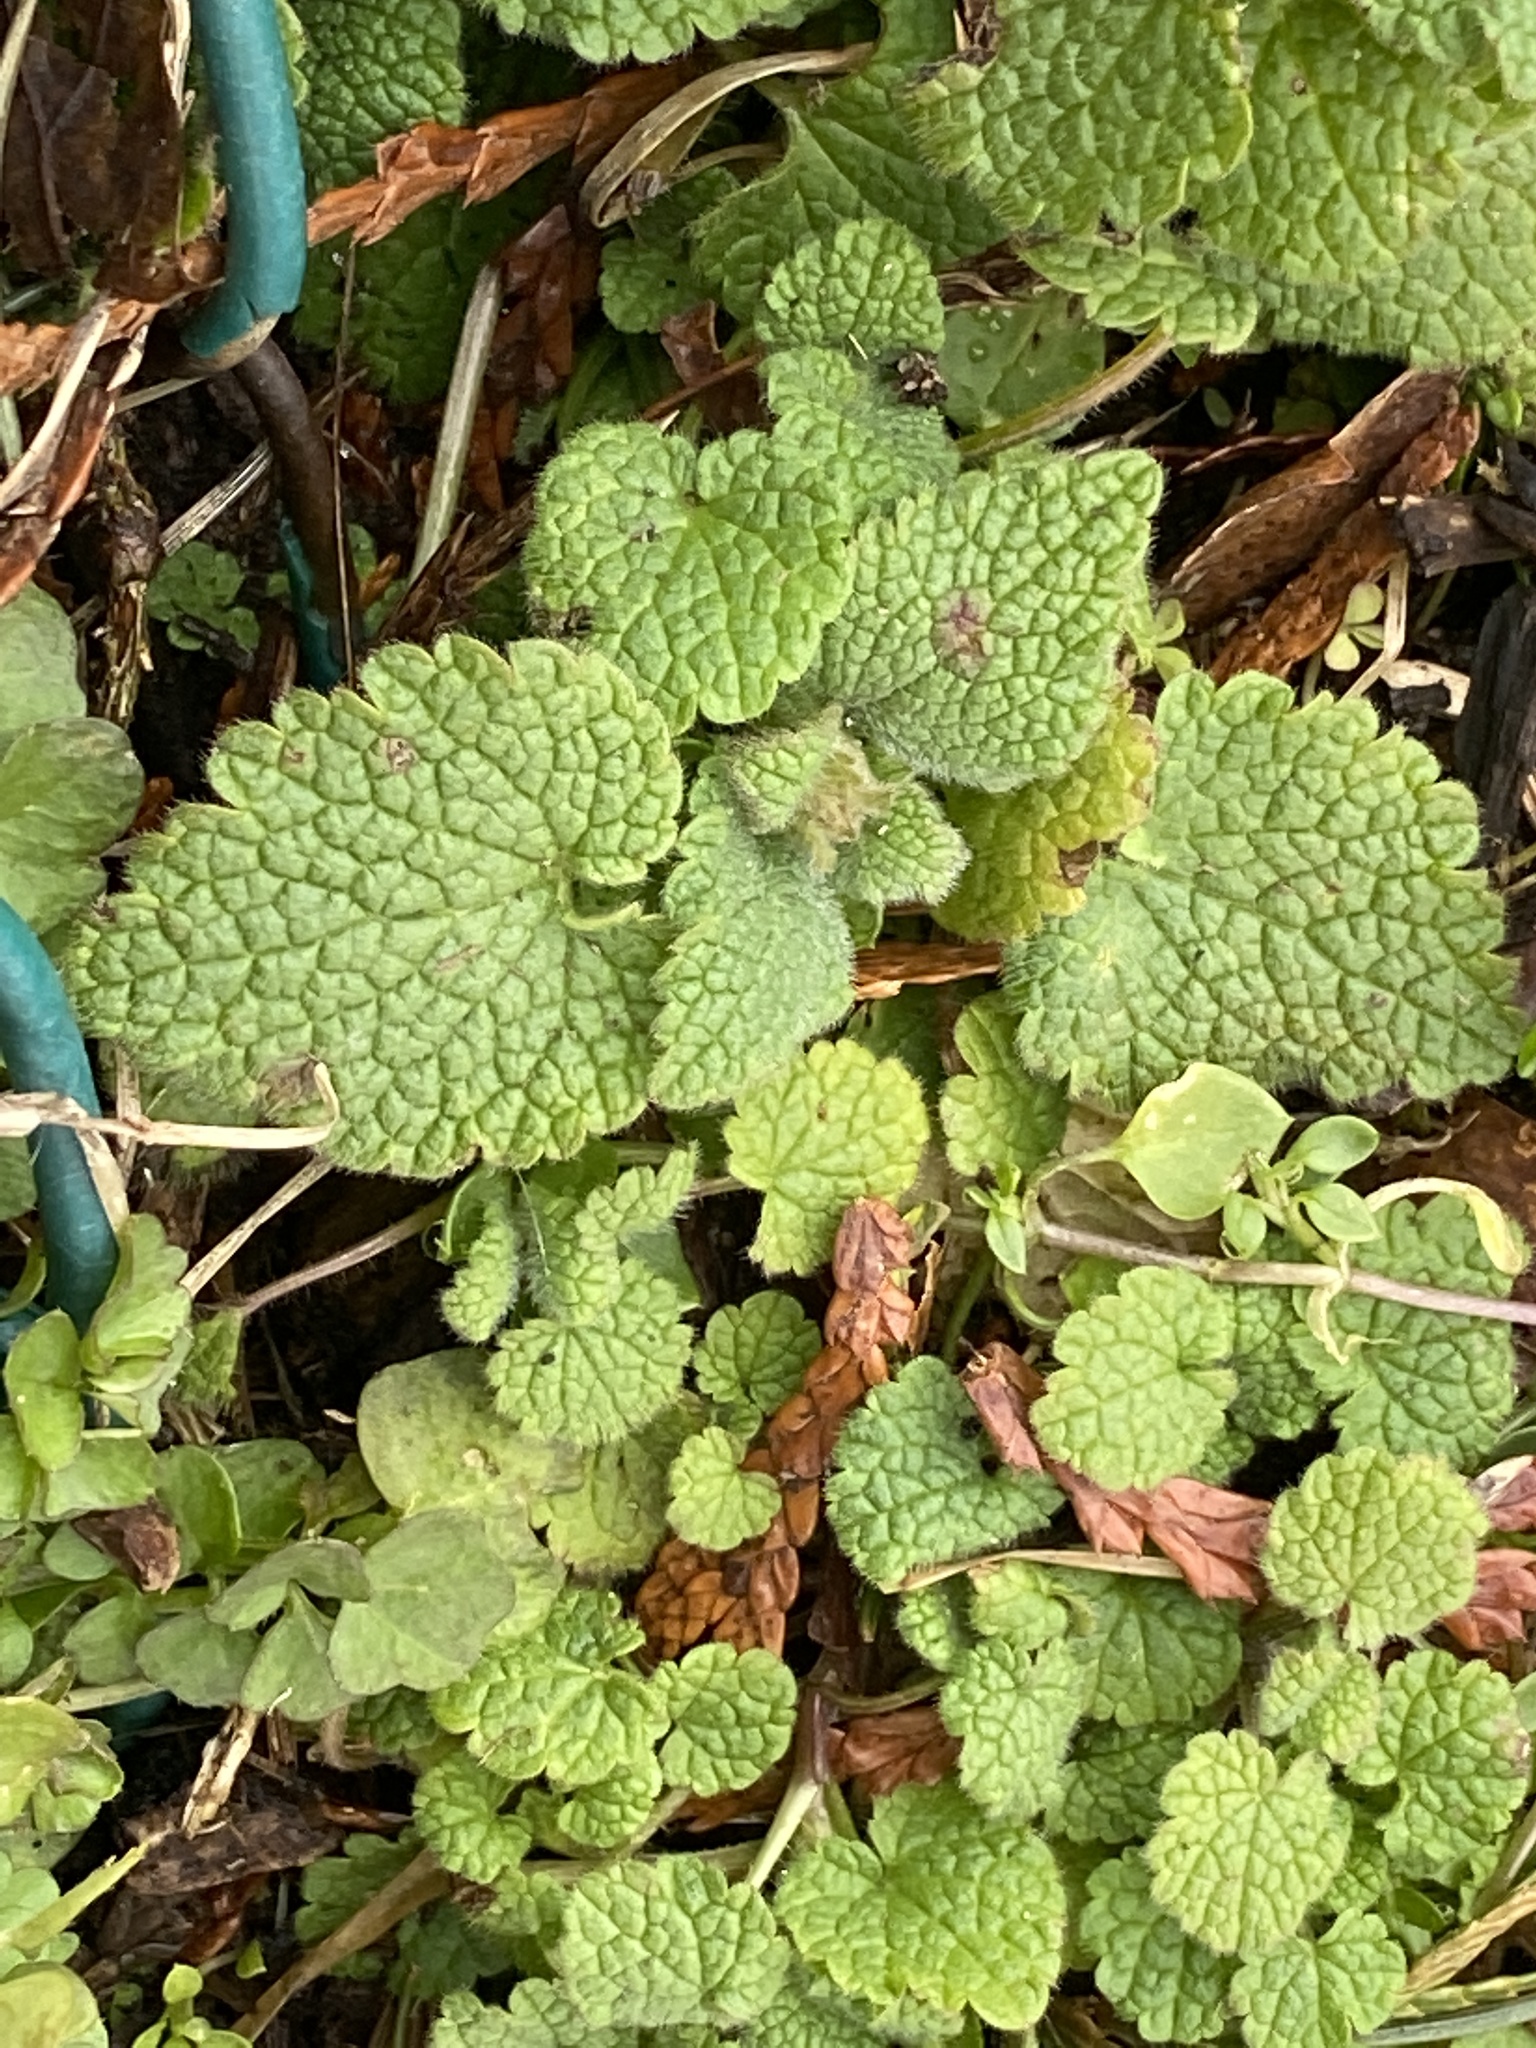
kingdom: Plantae
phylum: Tracheophyta
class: Magnoliopsida
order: Lamiales
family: Lamiaceae
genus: Lamium
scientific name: Lamium purpureum
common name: Red dead-nettle
